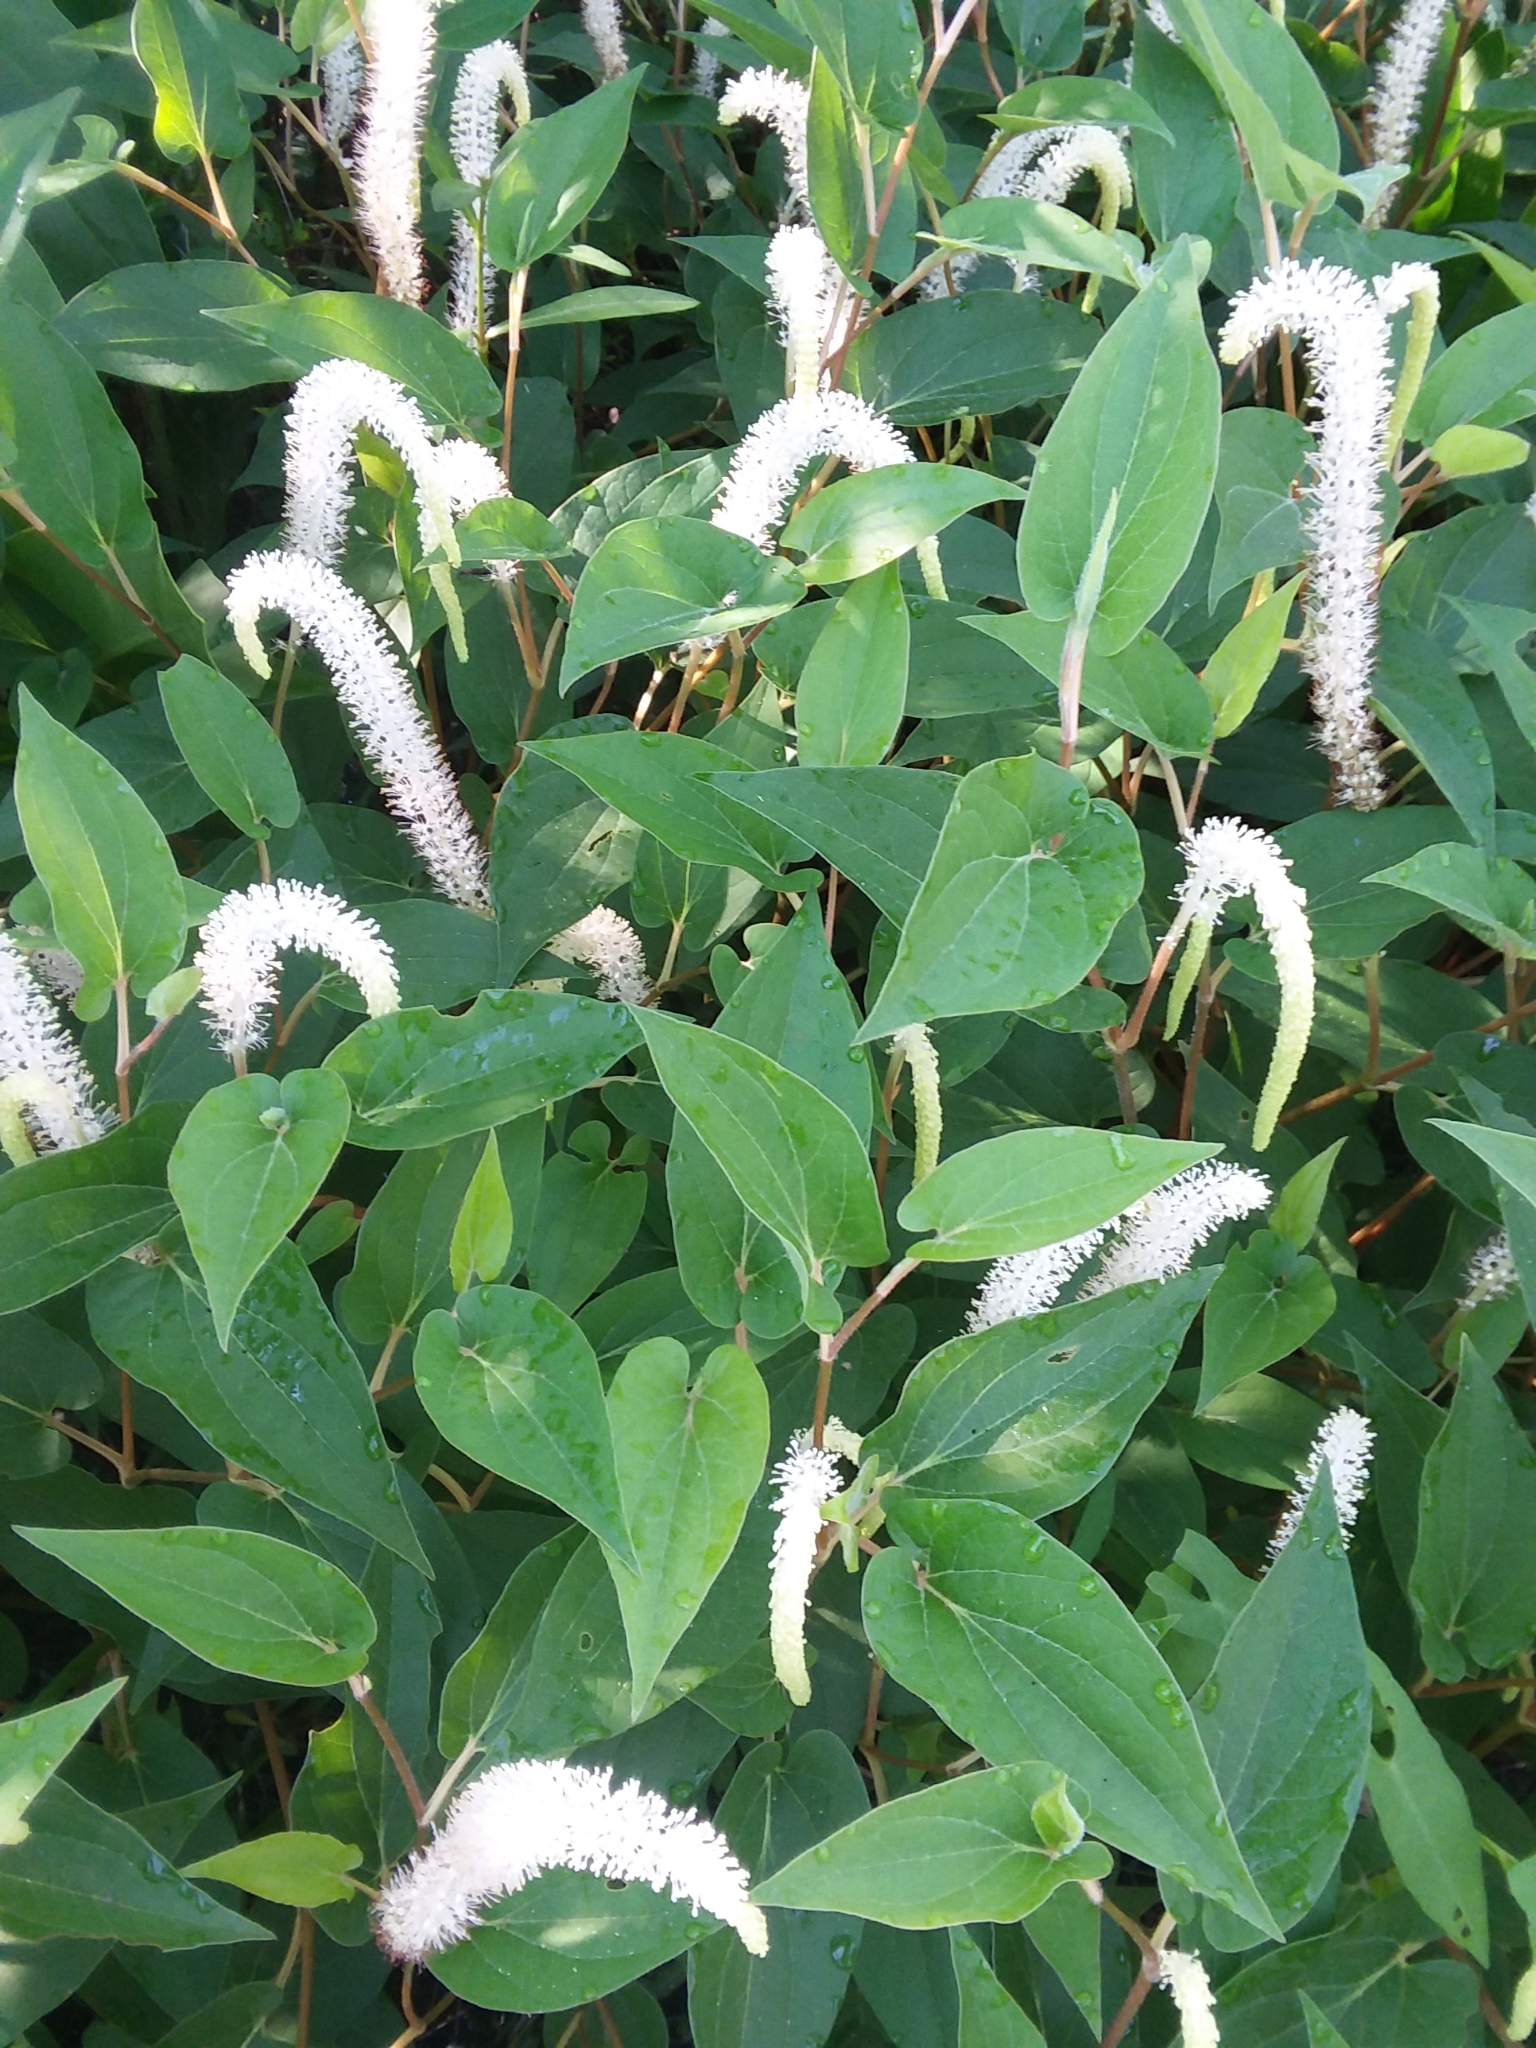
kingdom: Plantae
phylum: Tracheophyta
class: Magnoliopsida
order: Piperales
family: Saururaceae
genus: Saururus
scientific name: Saururus cernuus
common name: Lizard's-tail
